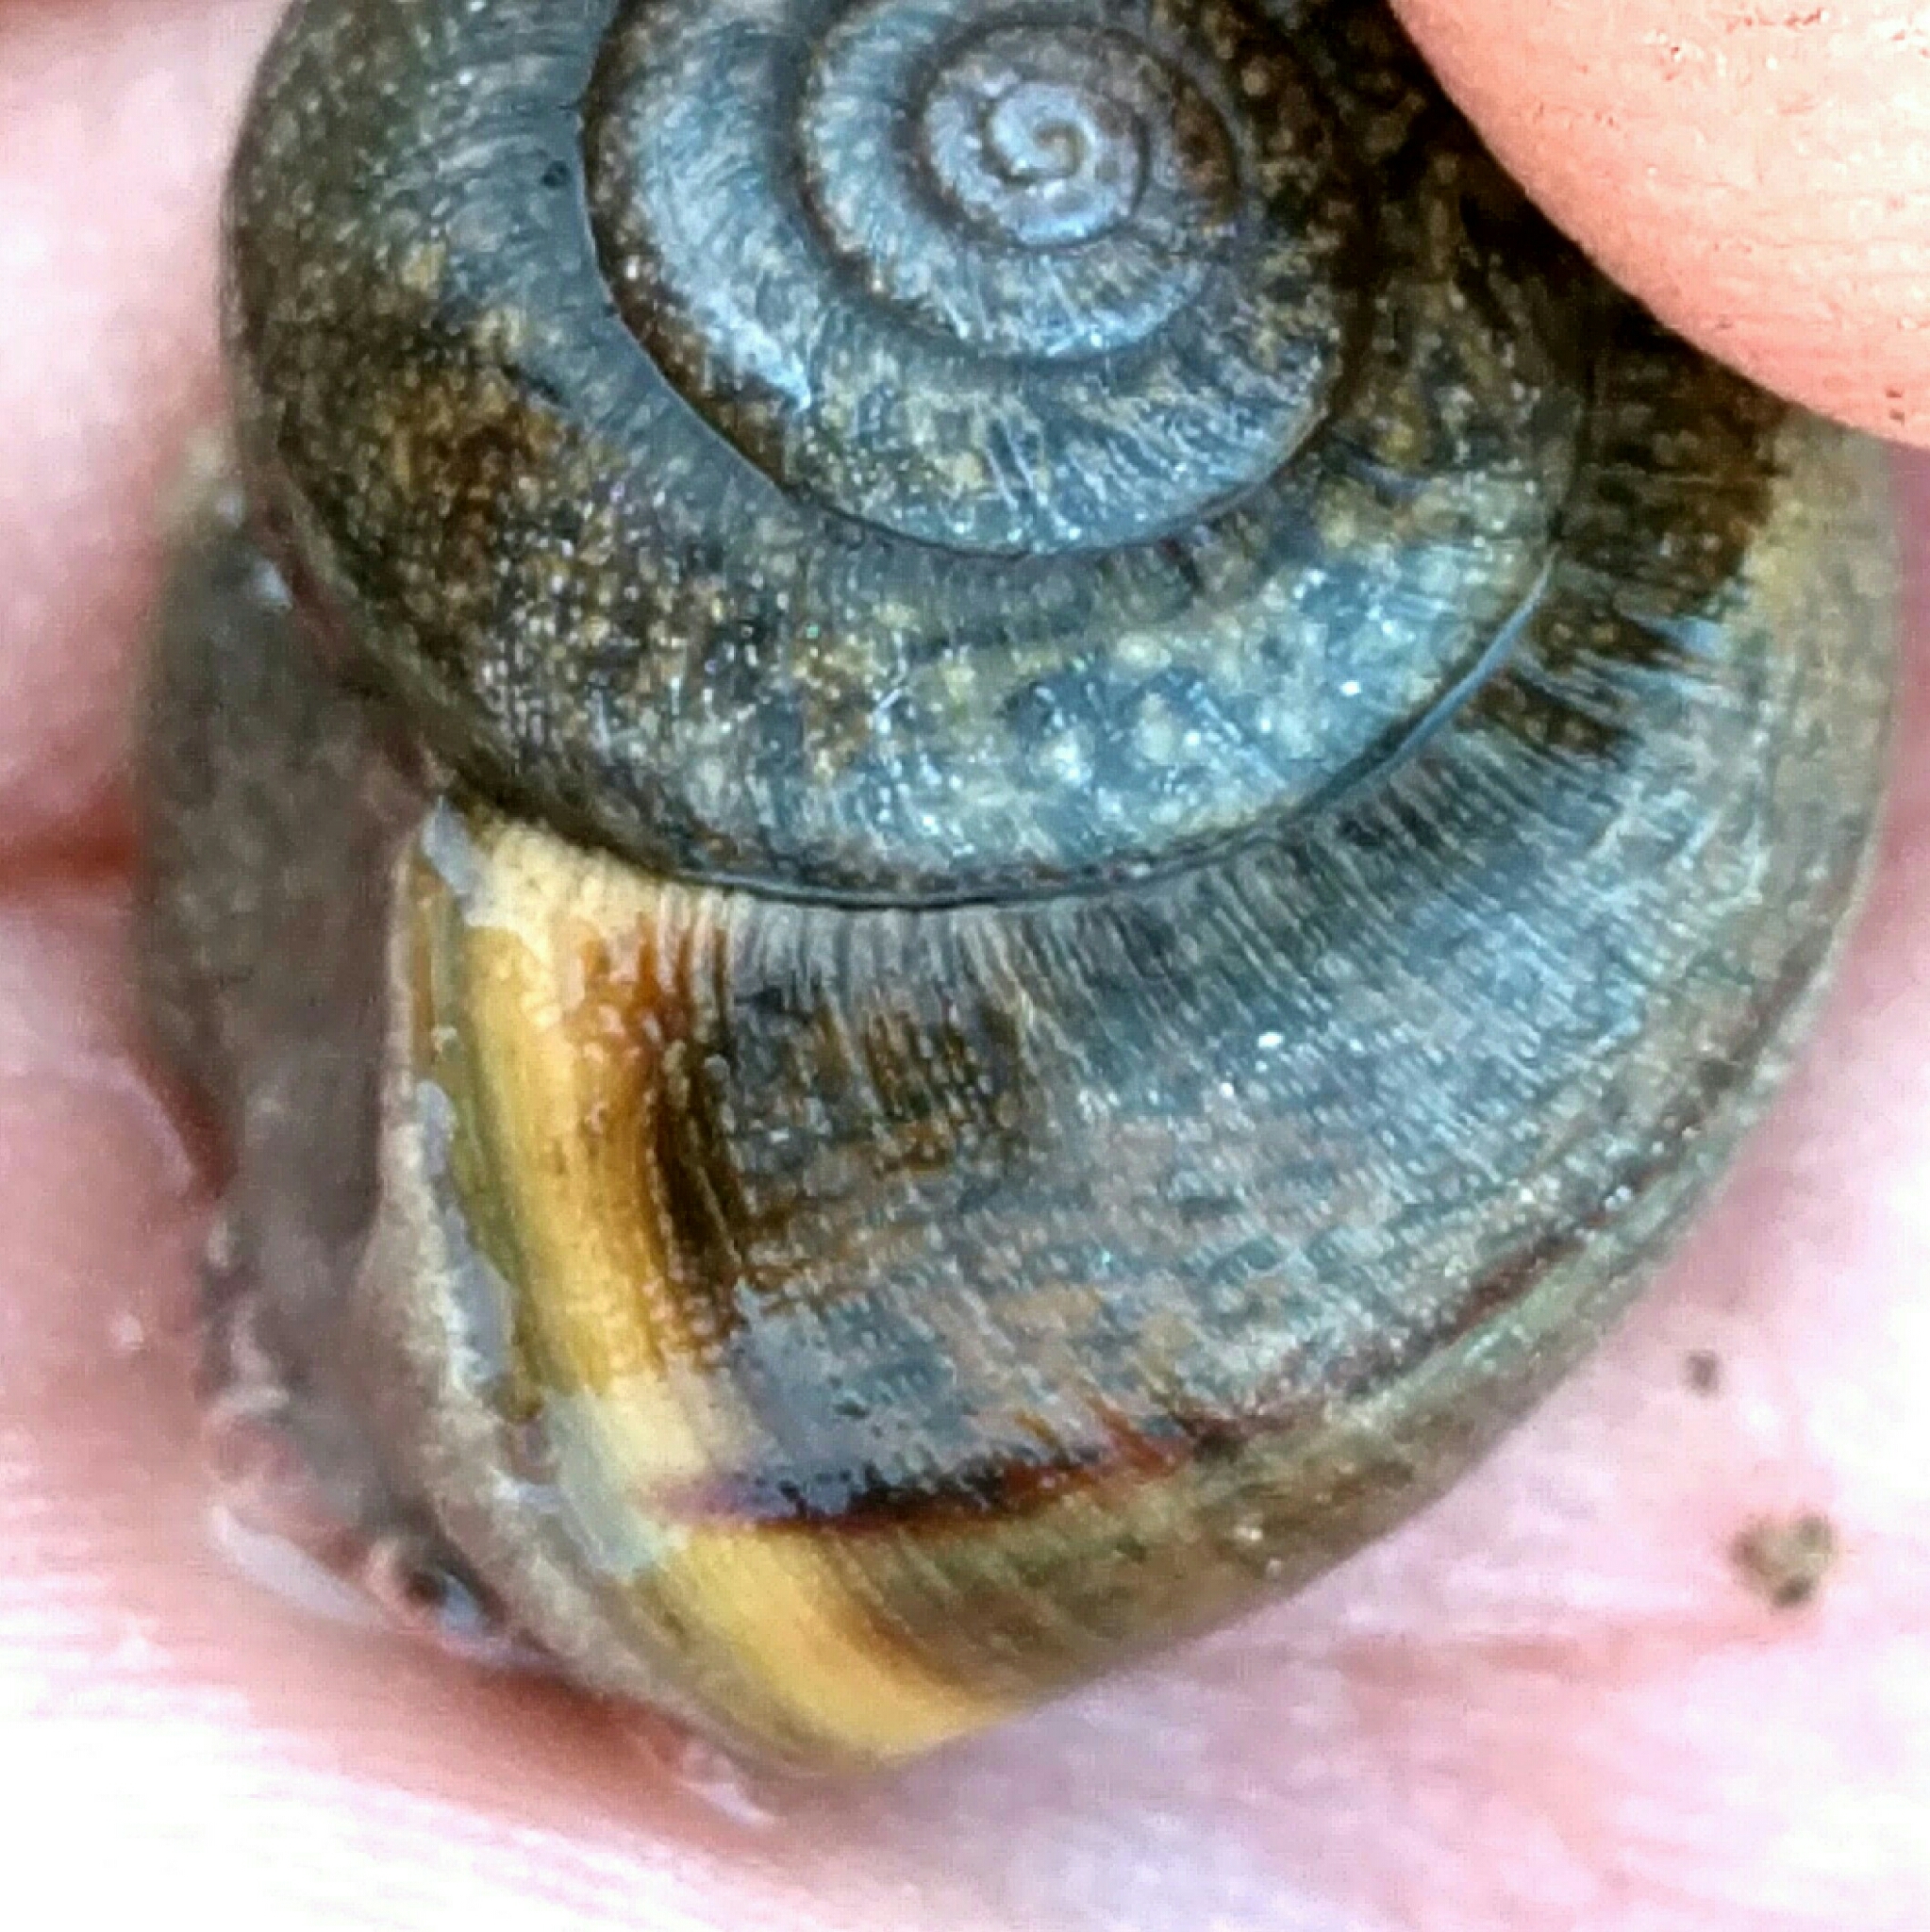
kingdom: Animalia
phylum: Mollusca
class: Gastropoda
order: Stylommatophora
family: Xanthonychidae
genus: Helminthoglypta
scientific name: Helminthoglypta diabloensis
